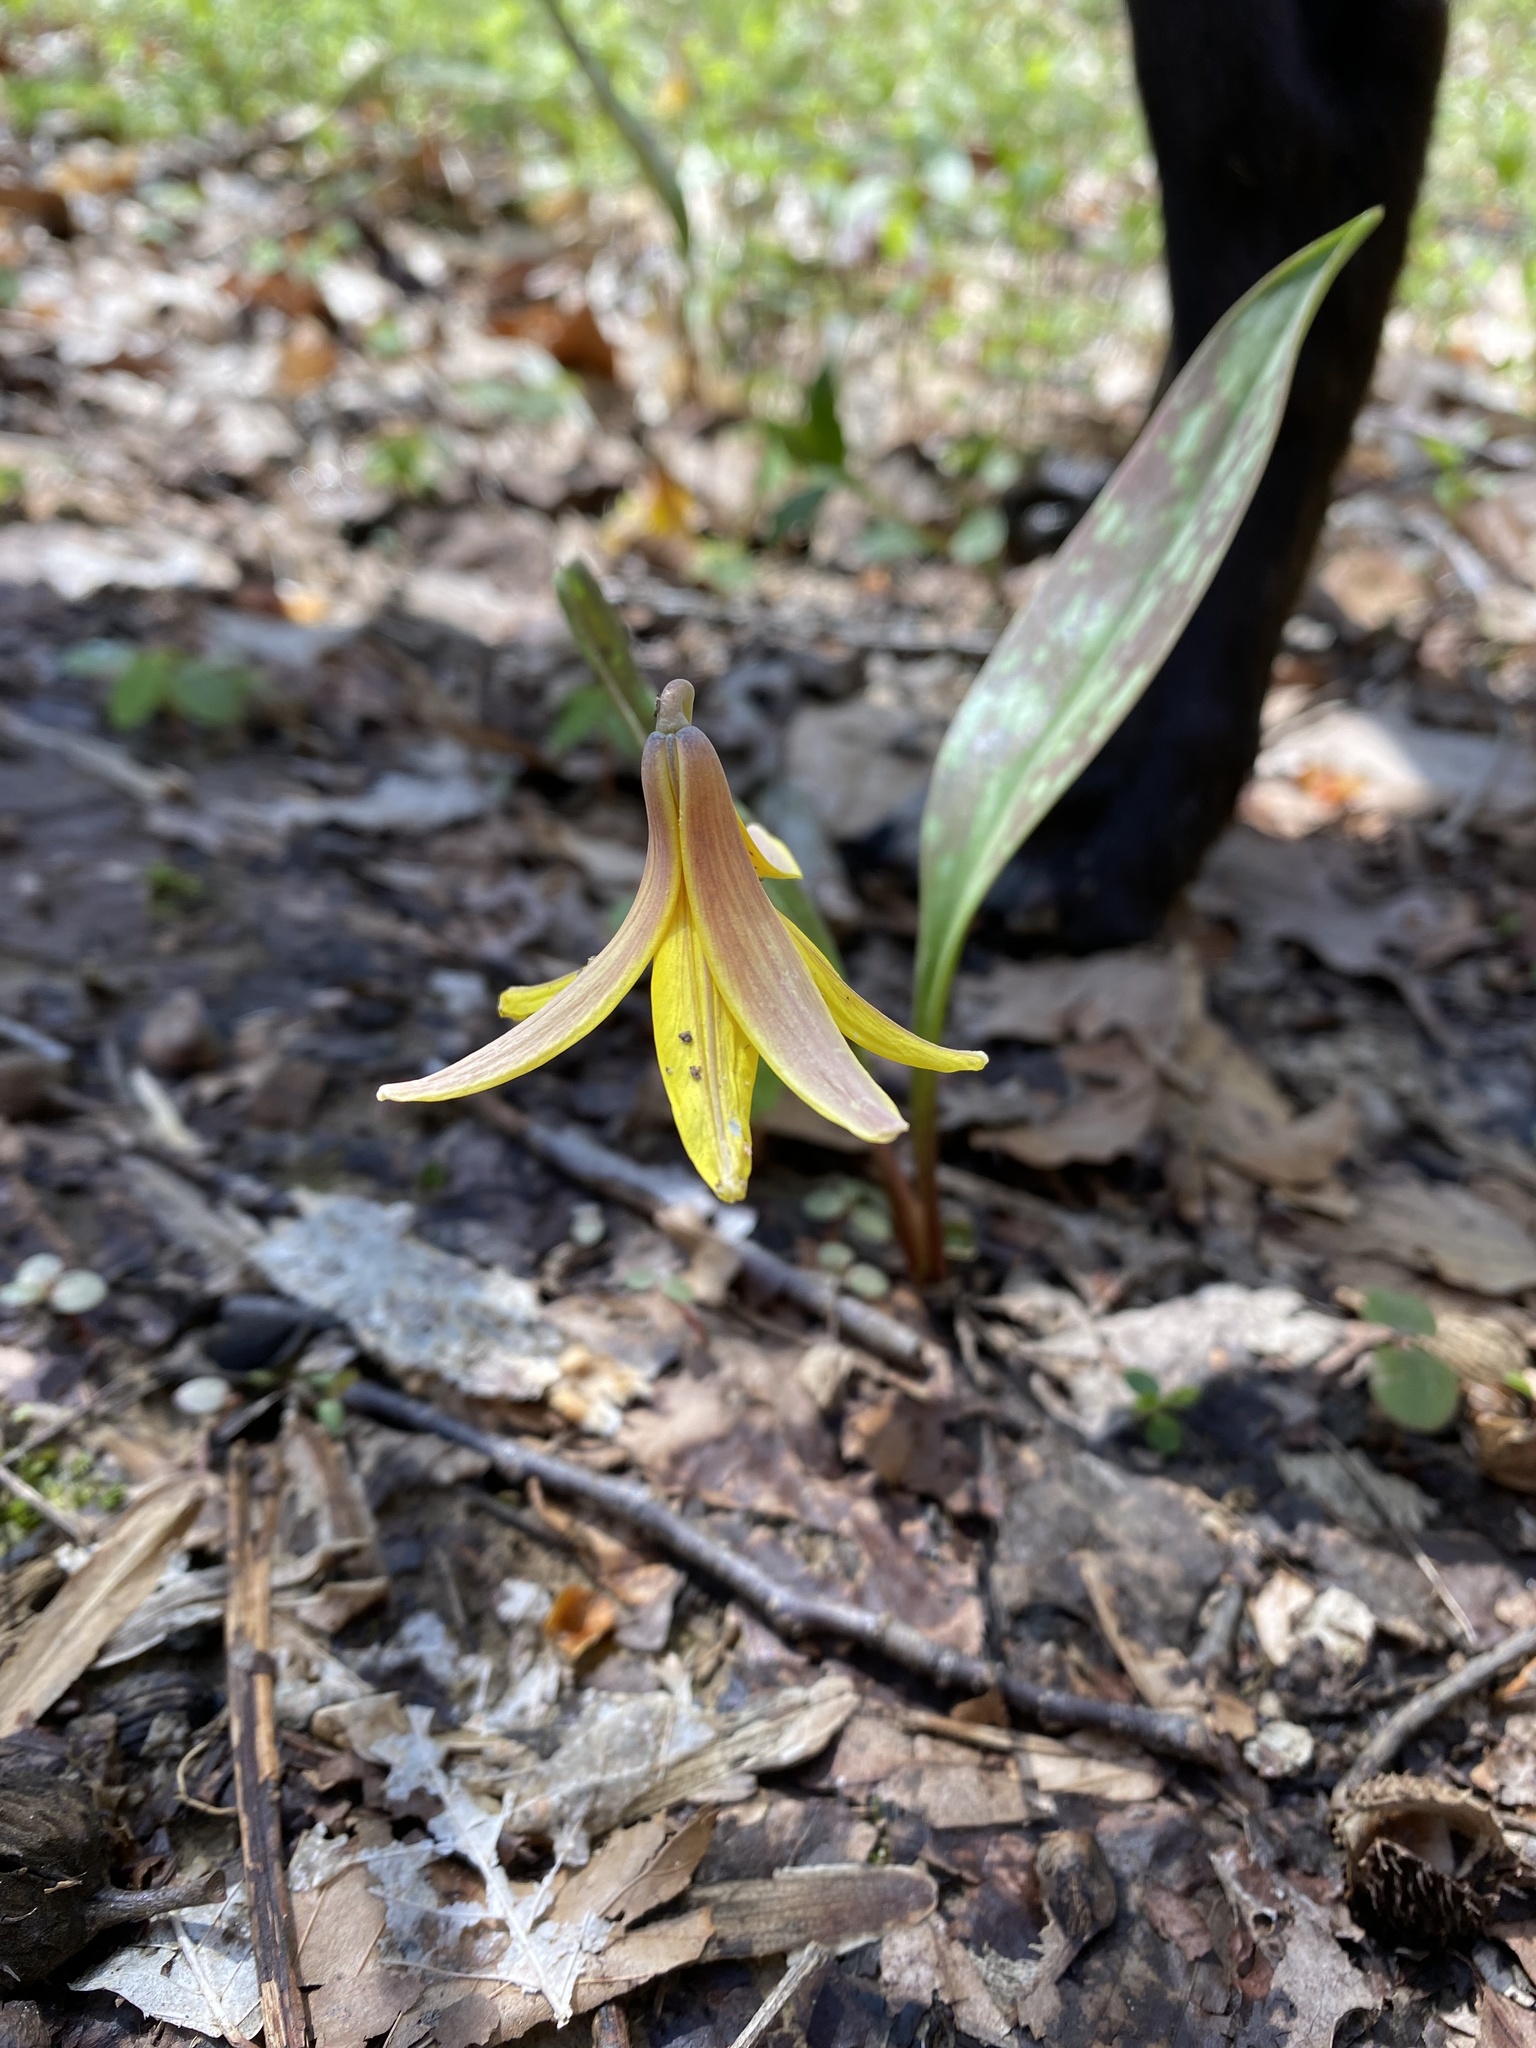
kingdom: Plantae
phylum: Tracheophyta
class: Liliopsida
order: Liliales
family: Liliaceae
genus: Erythronium
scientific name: Erythronium americanum
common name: Yellow adder's-tongue
